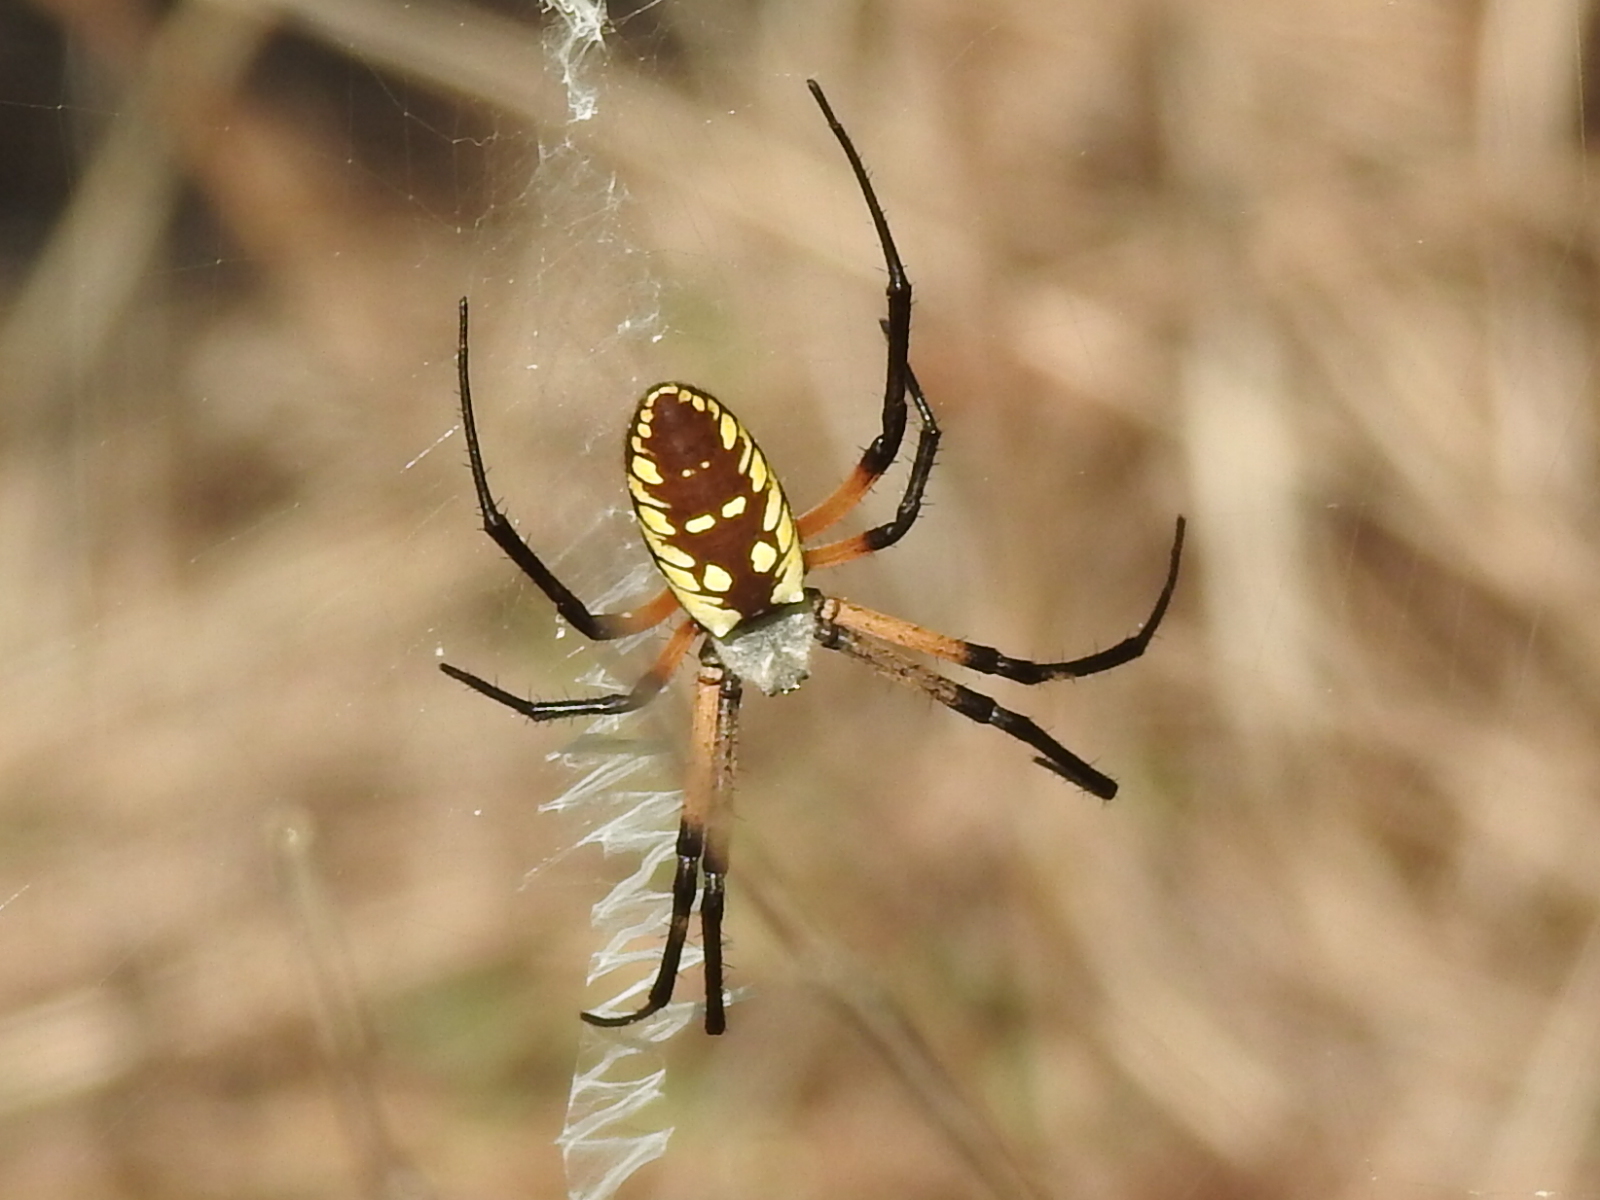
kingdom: Animalia
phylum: Arthropoda
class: Arachnida
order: Araneae
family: Araneidae
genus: Argiope
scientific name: Argiope aurantia
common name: Orb weavers
